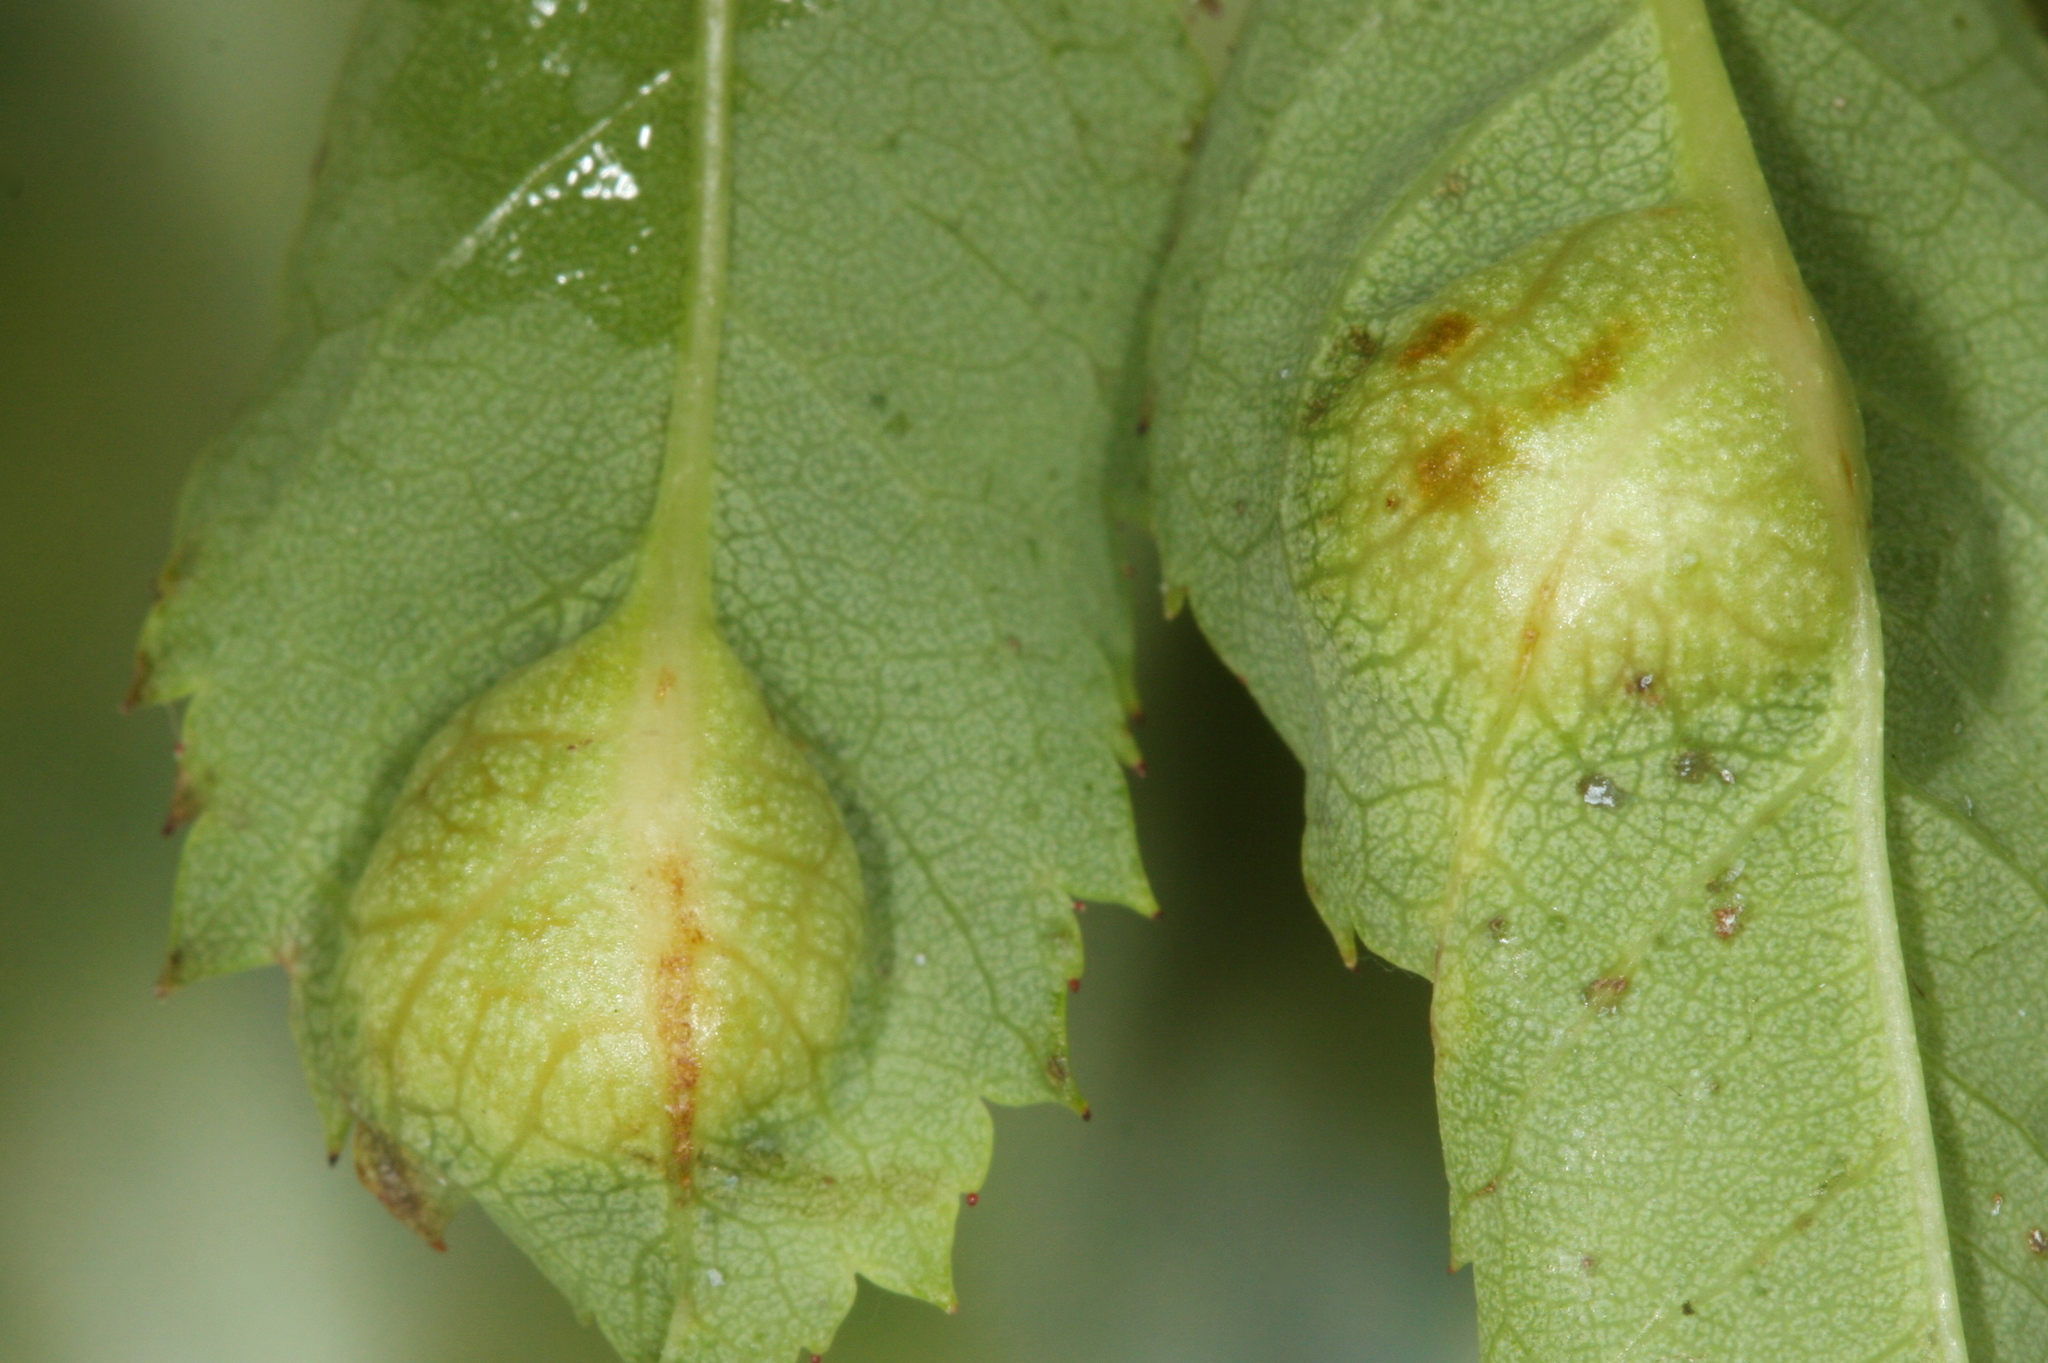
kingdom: Animalia
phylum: Arthropoda
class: Insecta
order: Hymenoptera
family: Cynipidae
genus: Diplolepis
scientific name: Diplolepis spinosissimae
